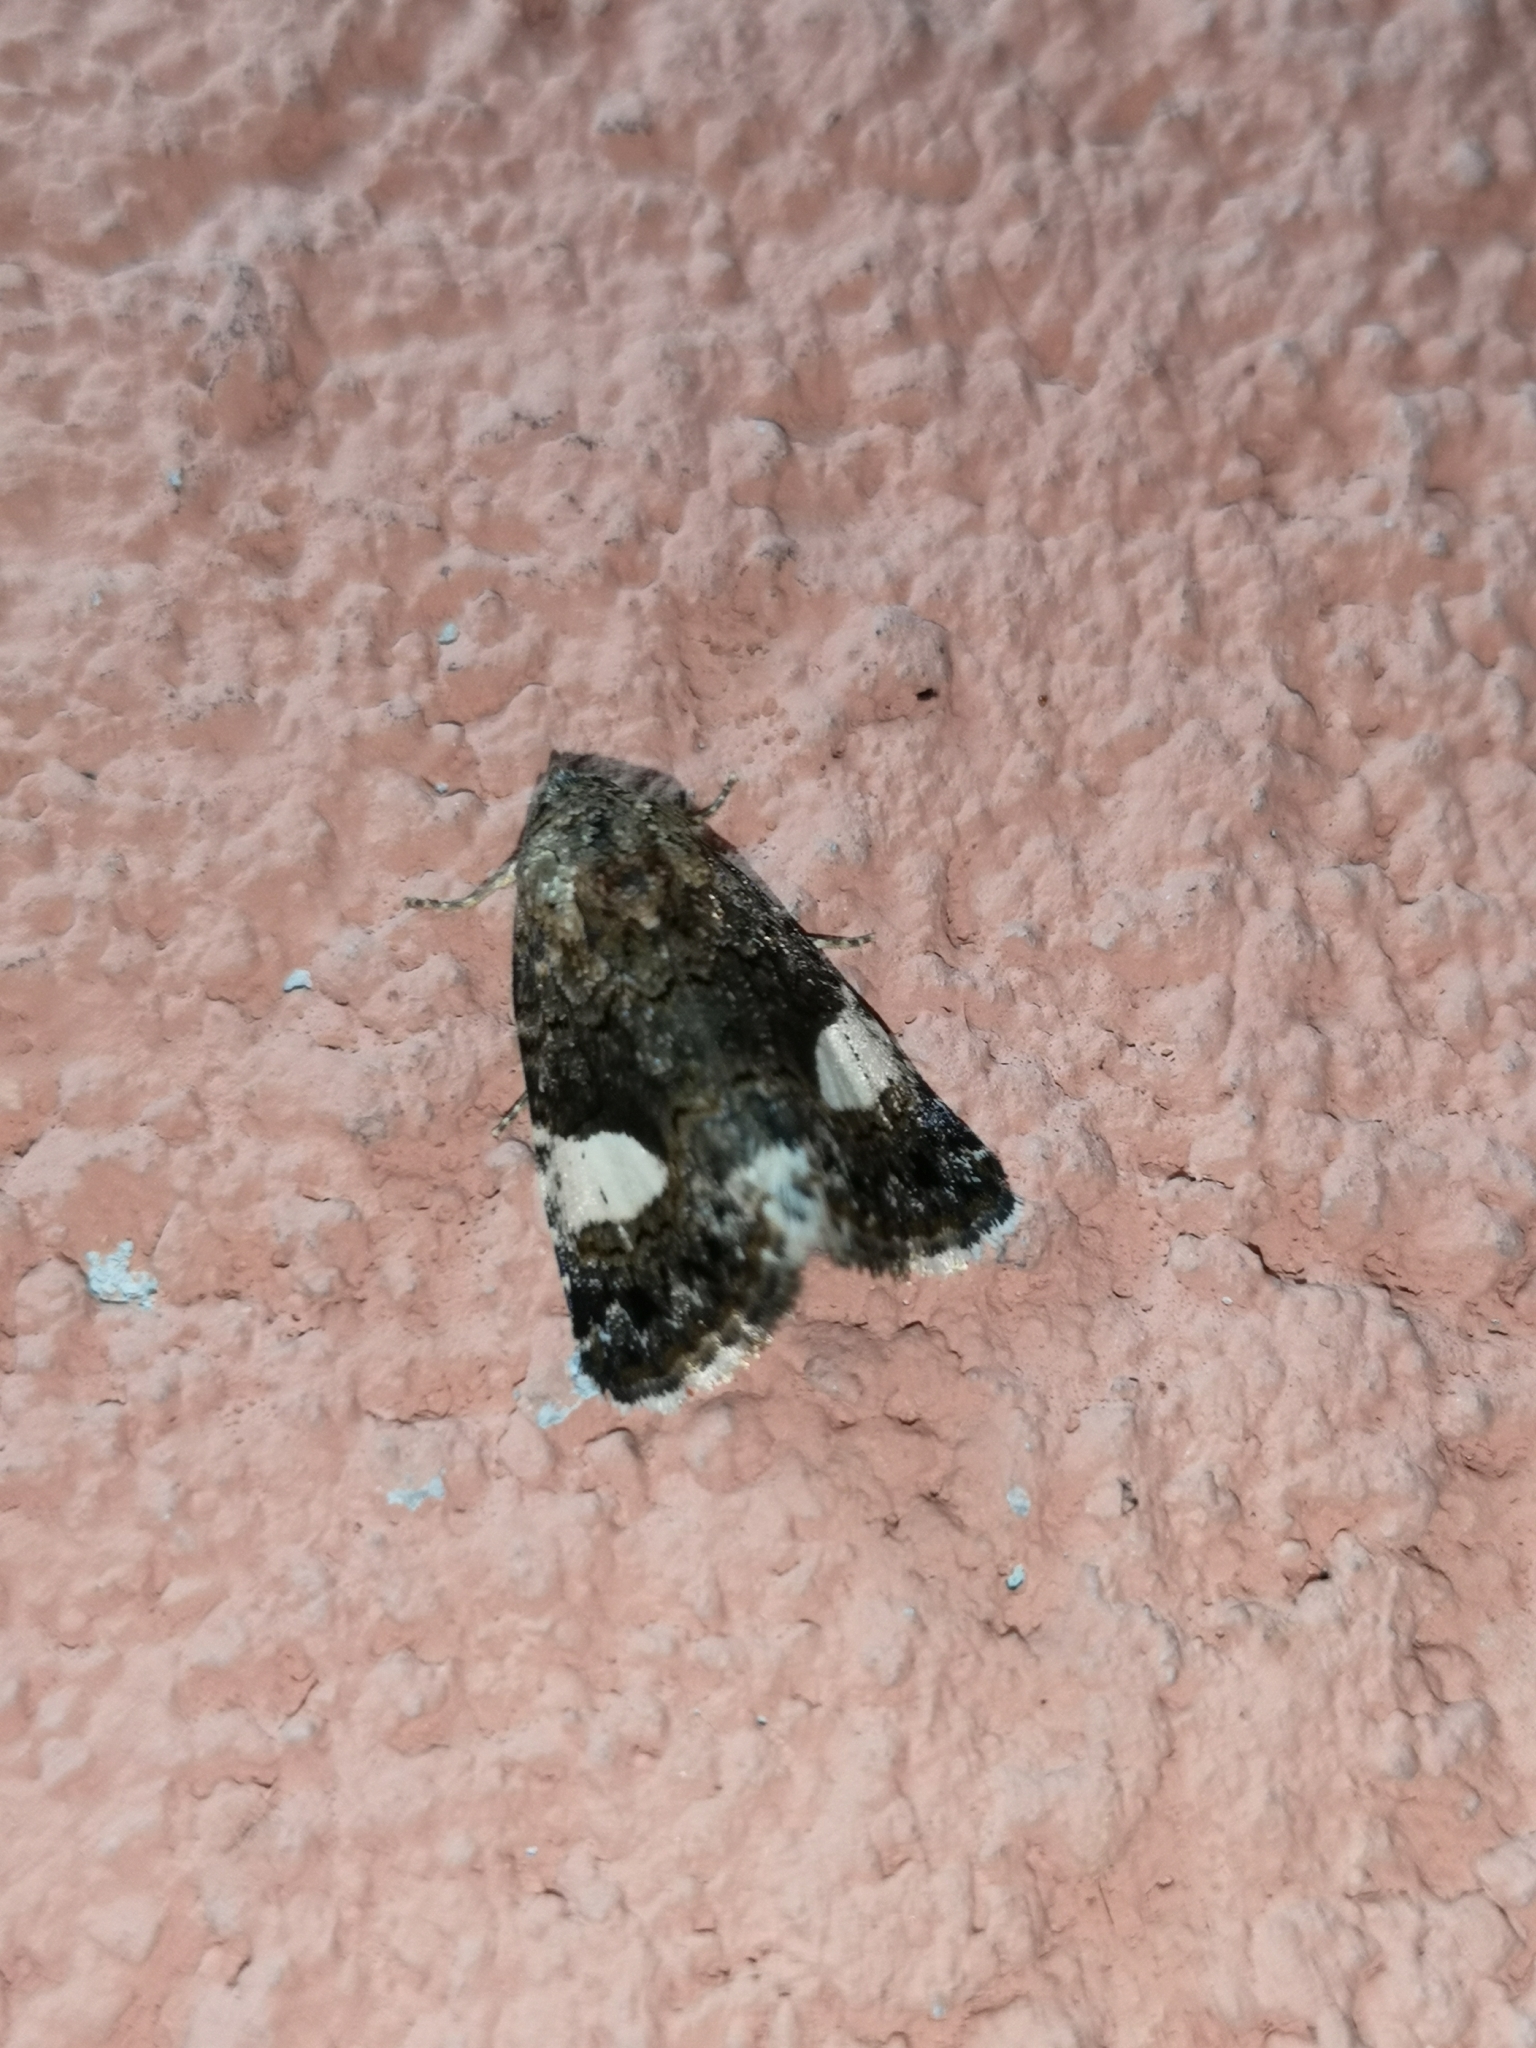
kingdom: Animalia
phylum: Arthropoda
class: Insecta
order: Lepidoptera
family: Erebidae
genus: Tyta
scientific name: Tyta luctuosa
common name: Four-spotted
